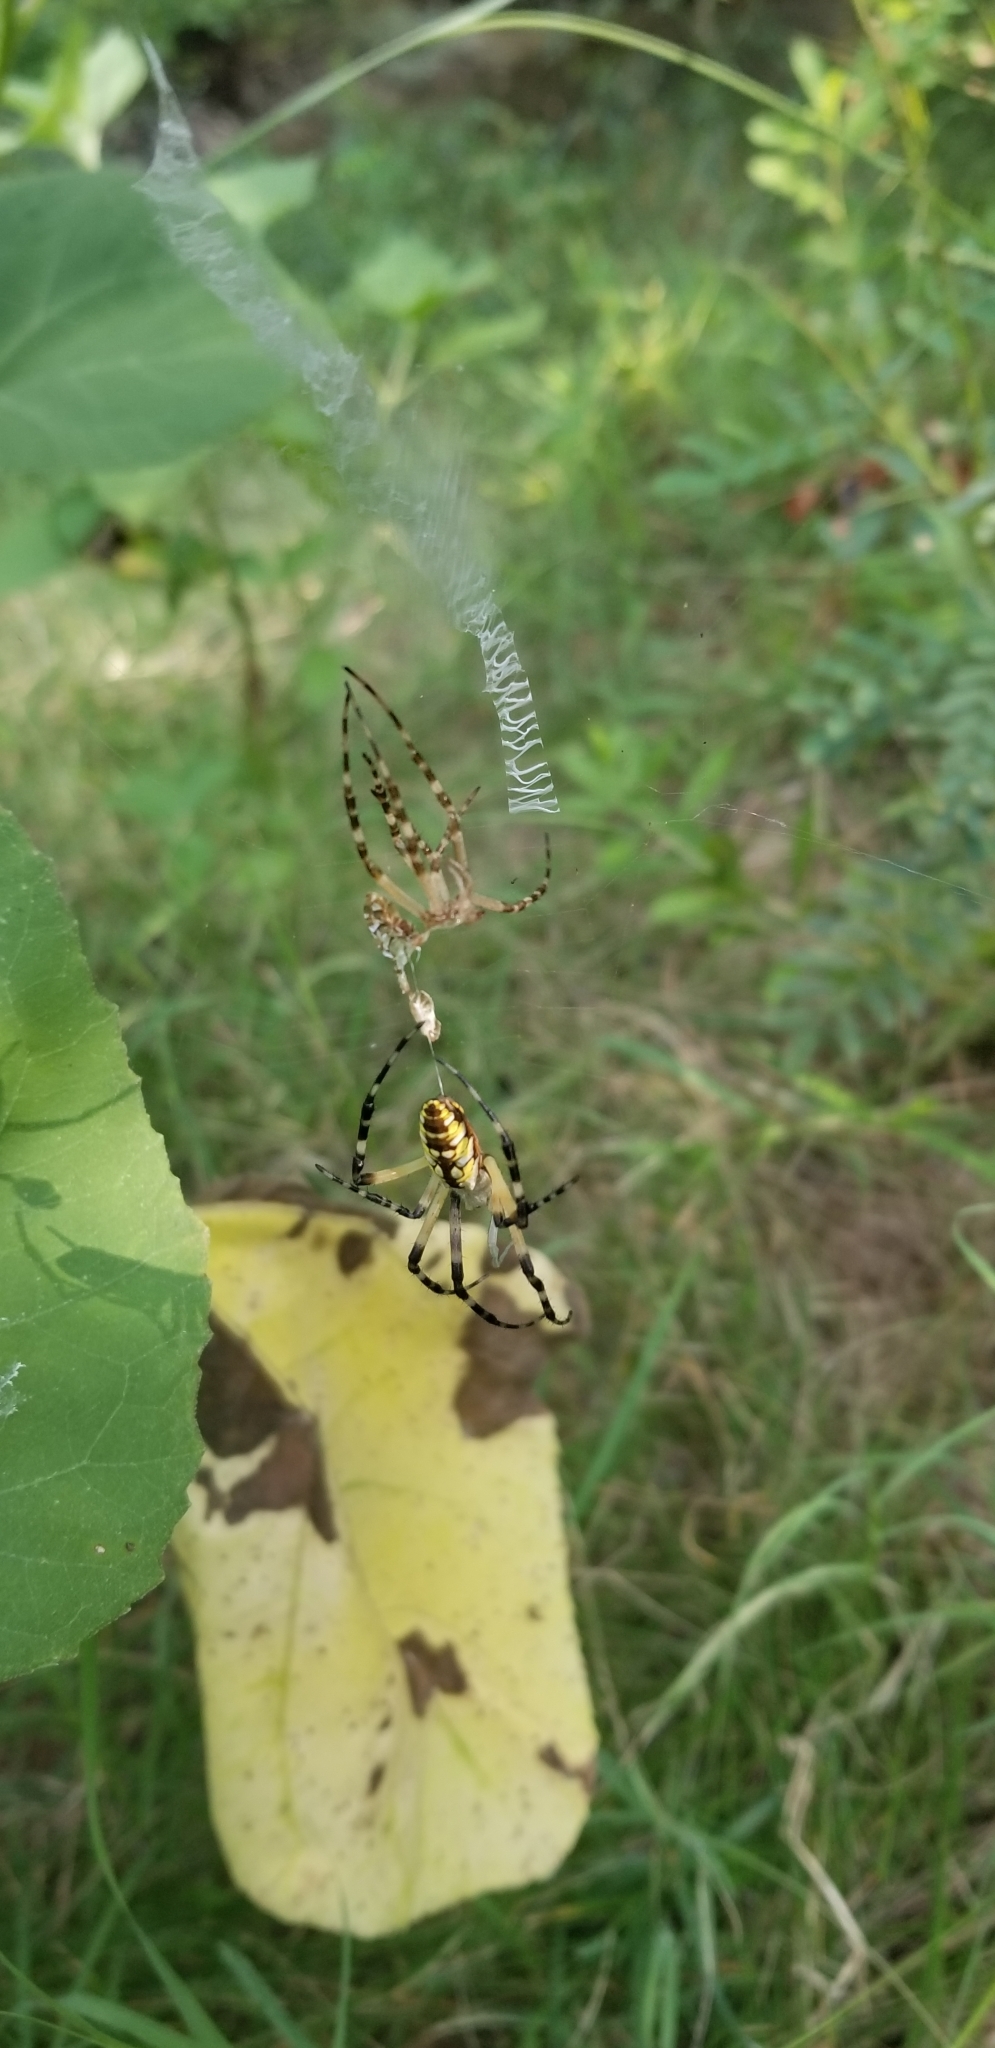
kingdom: Animalia
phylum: Arthropoda
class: Arachnida
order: Araneae
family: Araneidae
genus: Argiope
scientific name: Argiope aurantia
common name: Orb weavers
